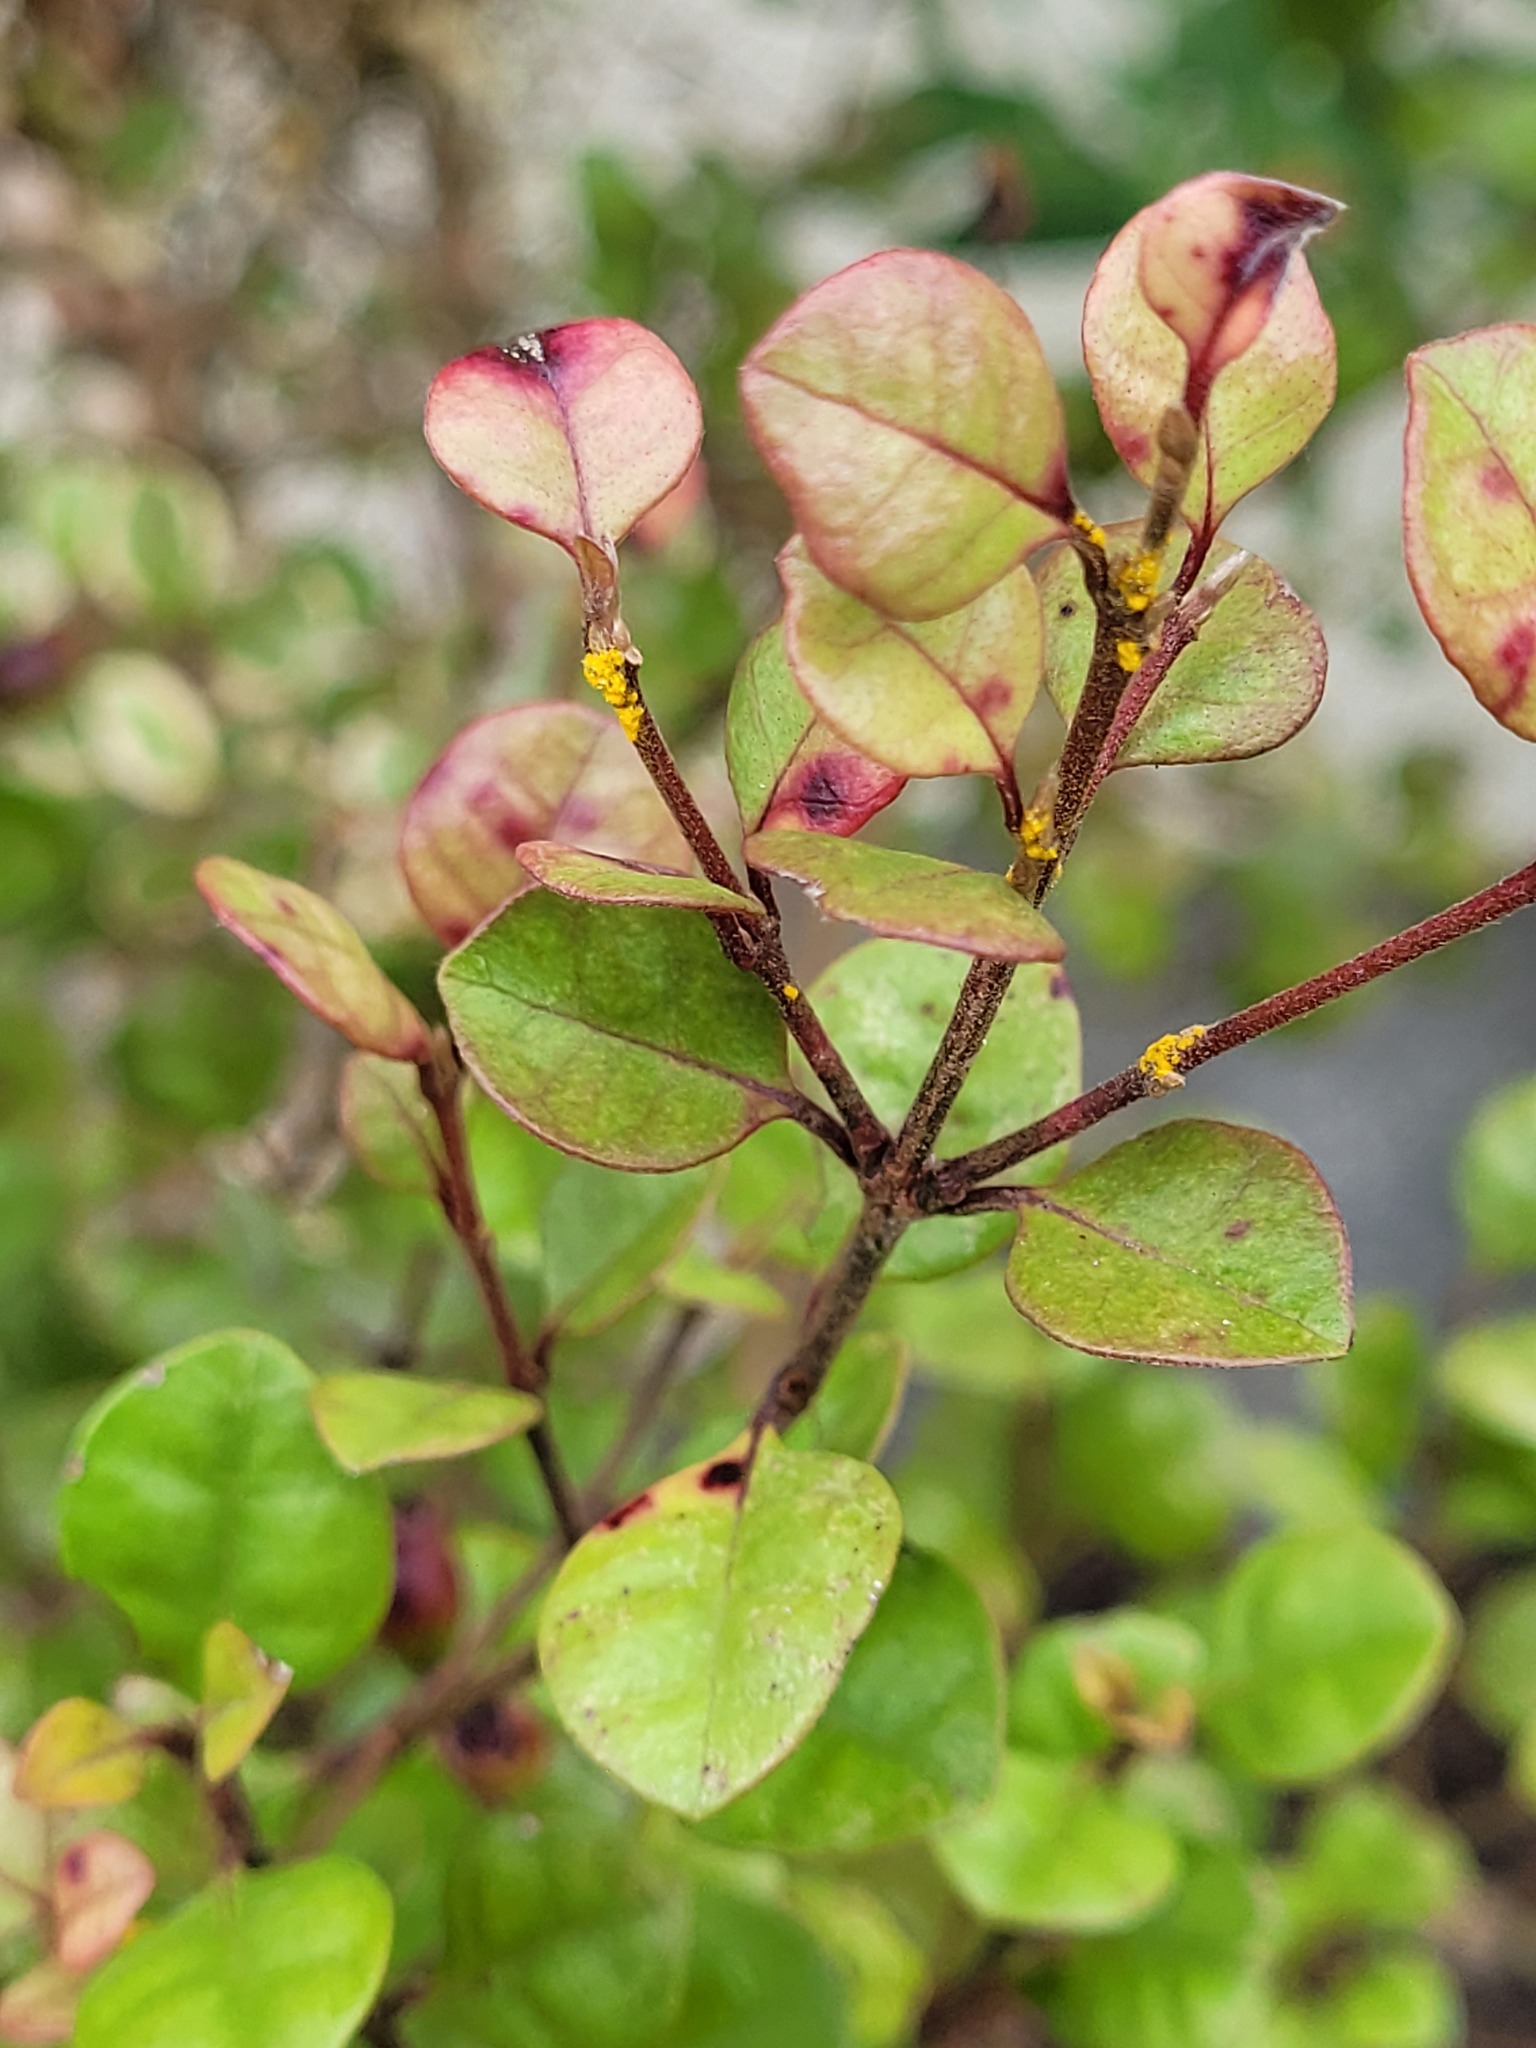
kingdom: Fungi
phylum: Basidiomycota
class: Pucciniomycetes
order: Pucciniales
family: Sphaerophragmiaceae
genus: Austropuccinia
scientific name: Austropuccinia psidii
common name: Myrtle rust
